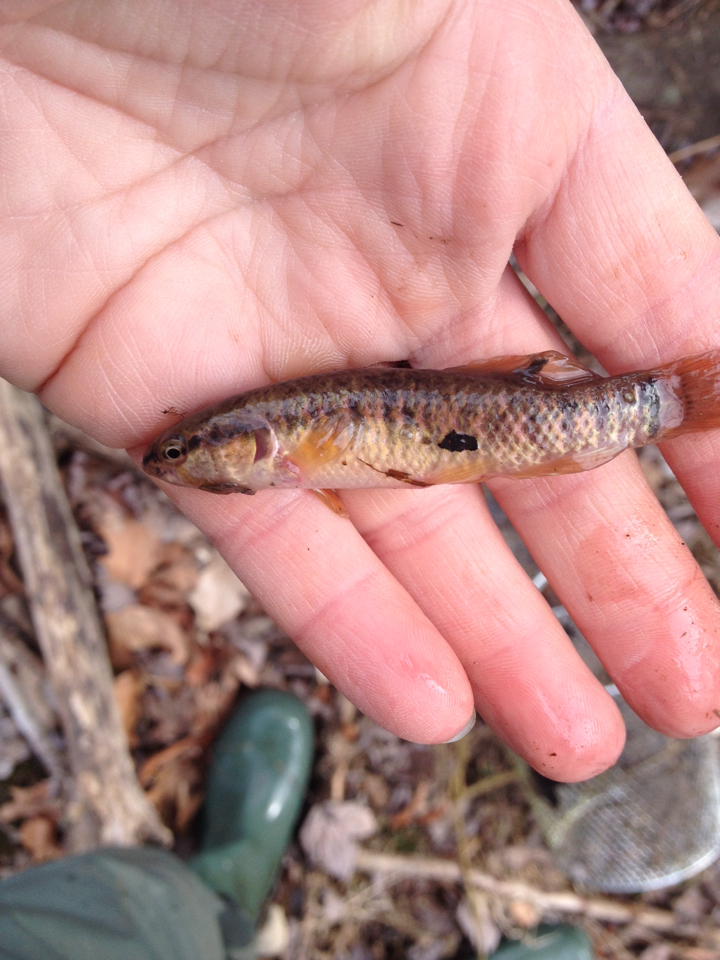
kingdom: Animalia
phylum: Chordata
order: Esociformes
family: Umbridae
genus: Umbra
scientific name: Umbra limi
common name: Central mudminnow
